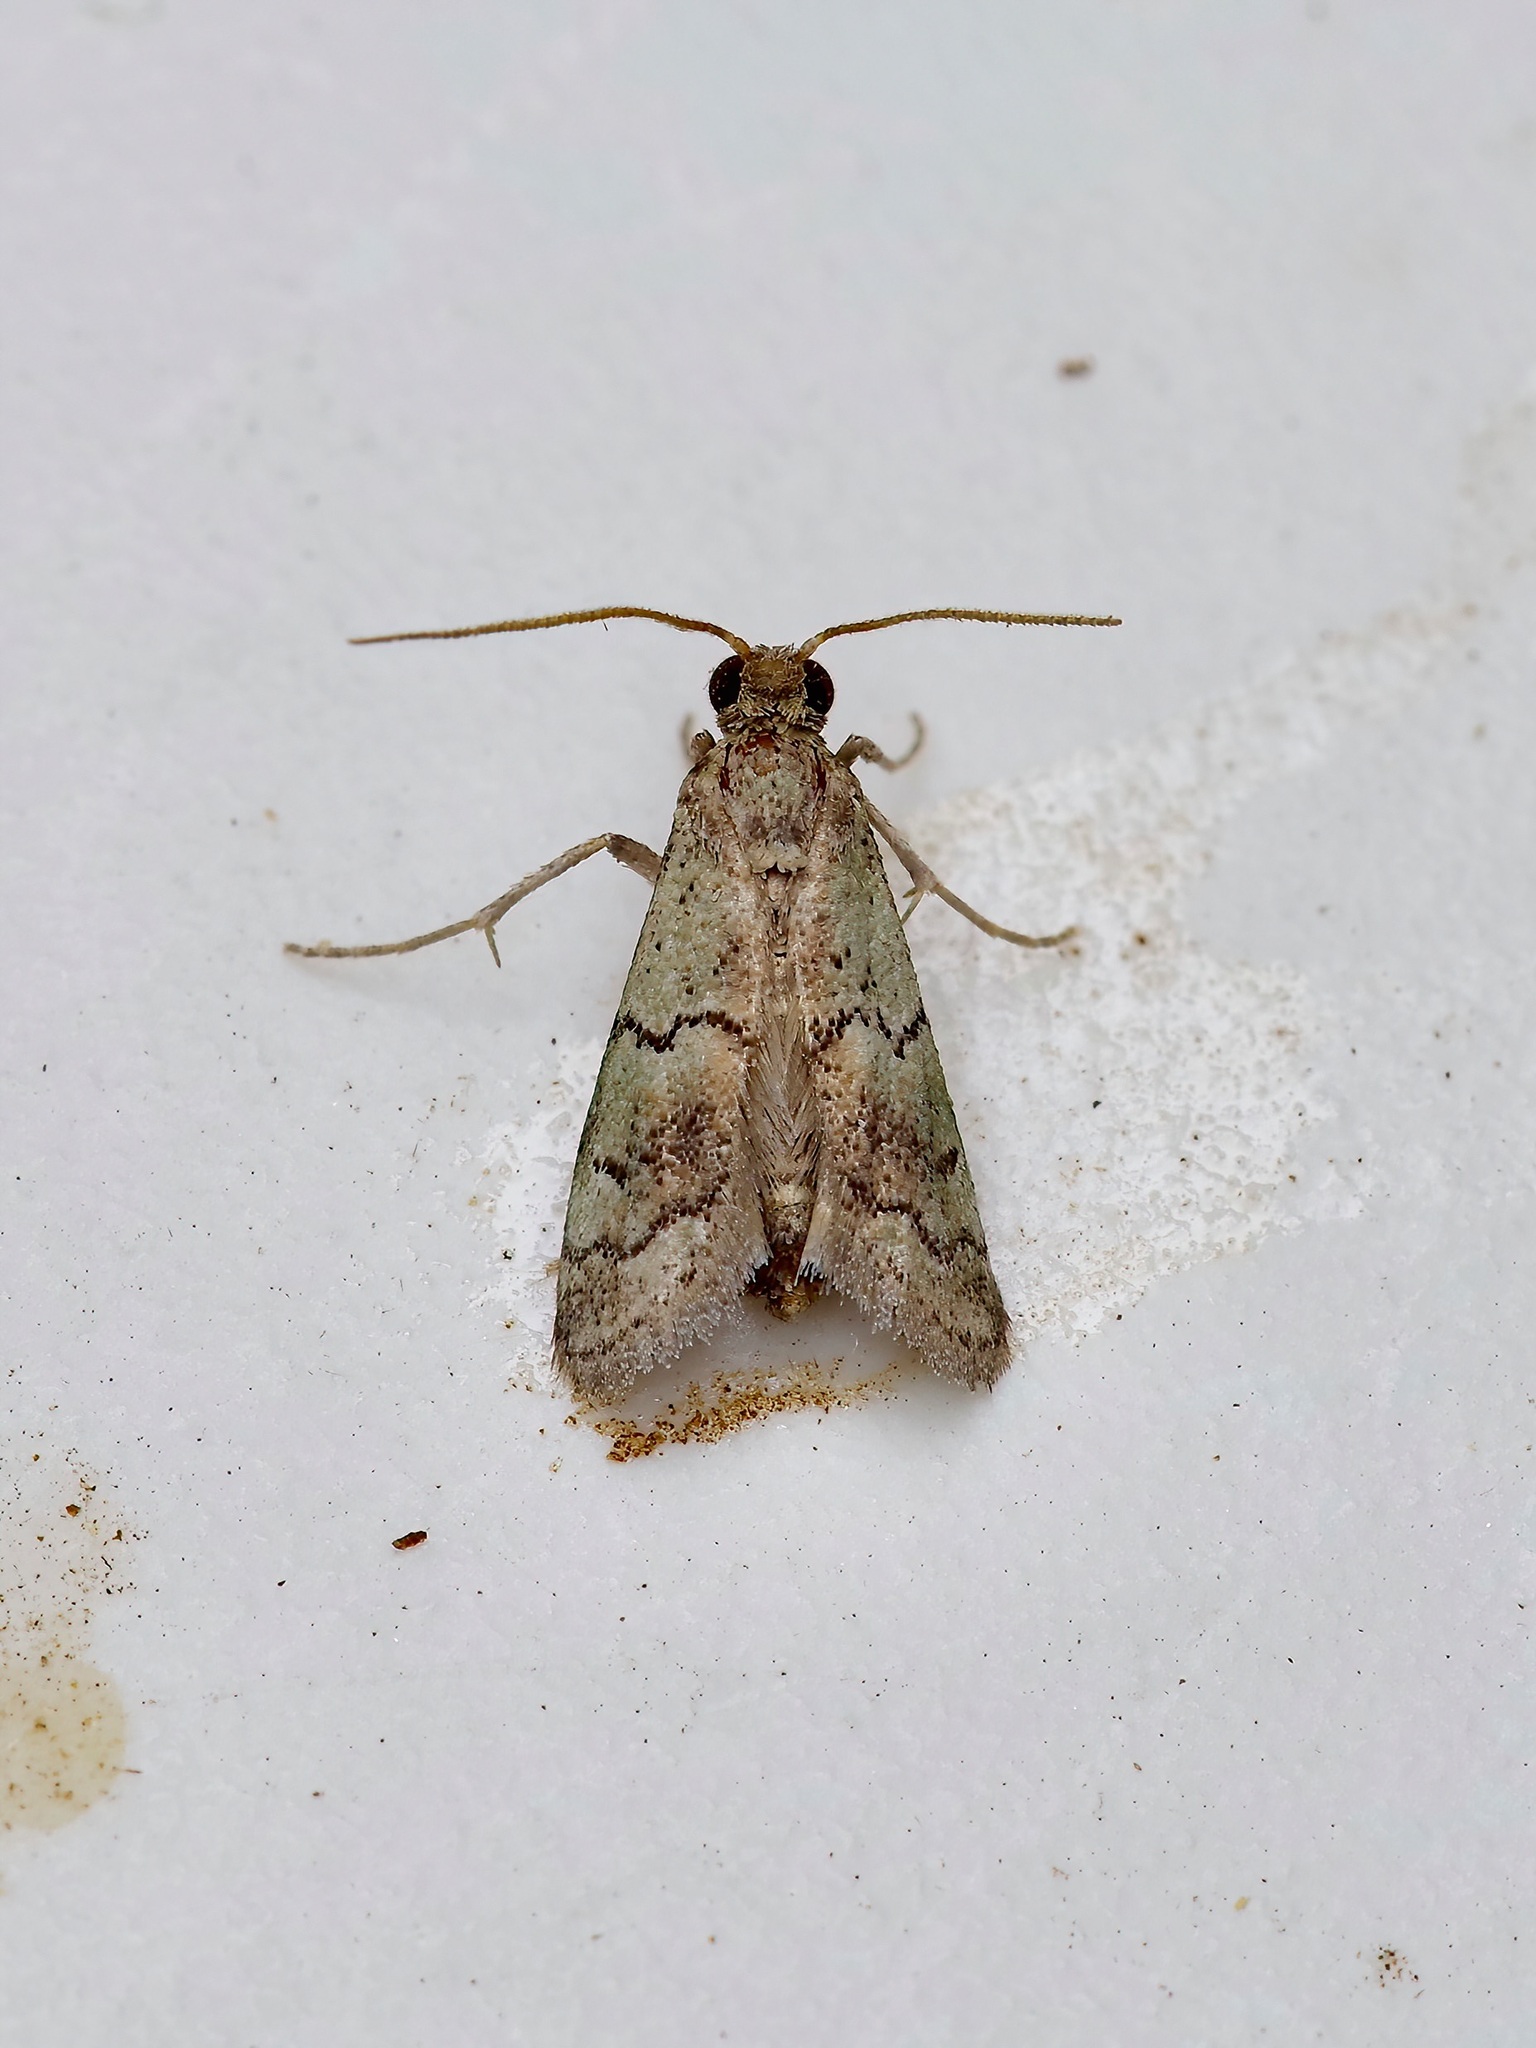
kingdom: Animalia
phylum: Arthropoda
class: Insecta
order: Lepidoptera
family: Pyralidae
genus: Cacotherapia
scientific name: Cacotherapia flexilinealis
